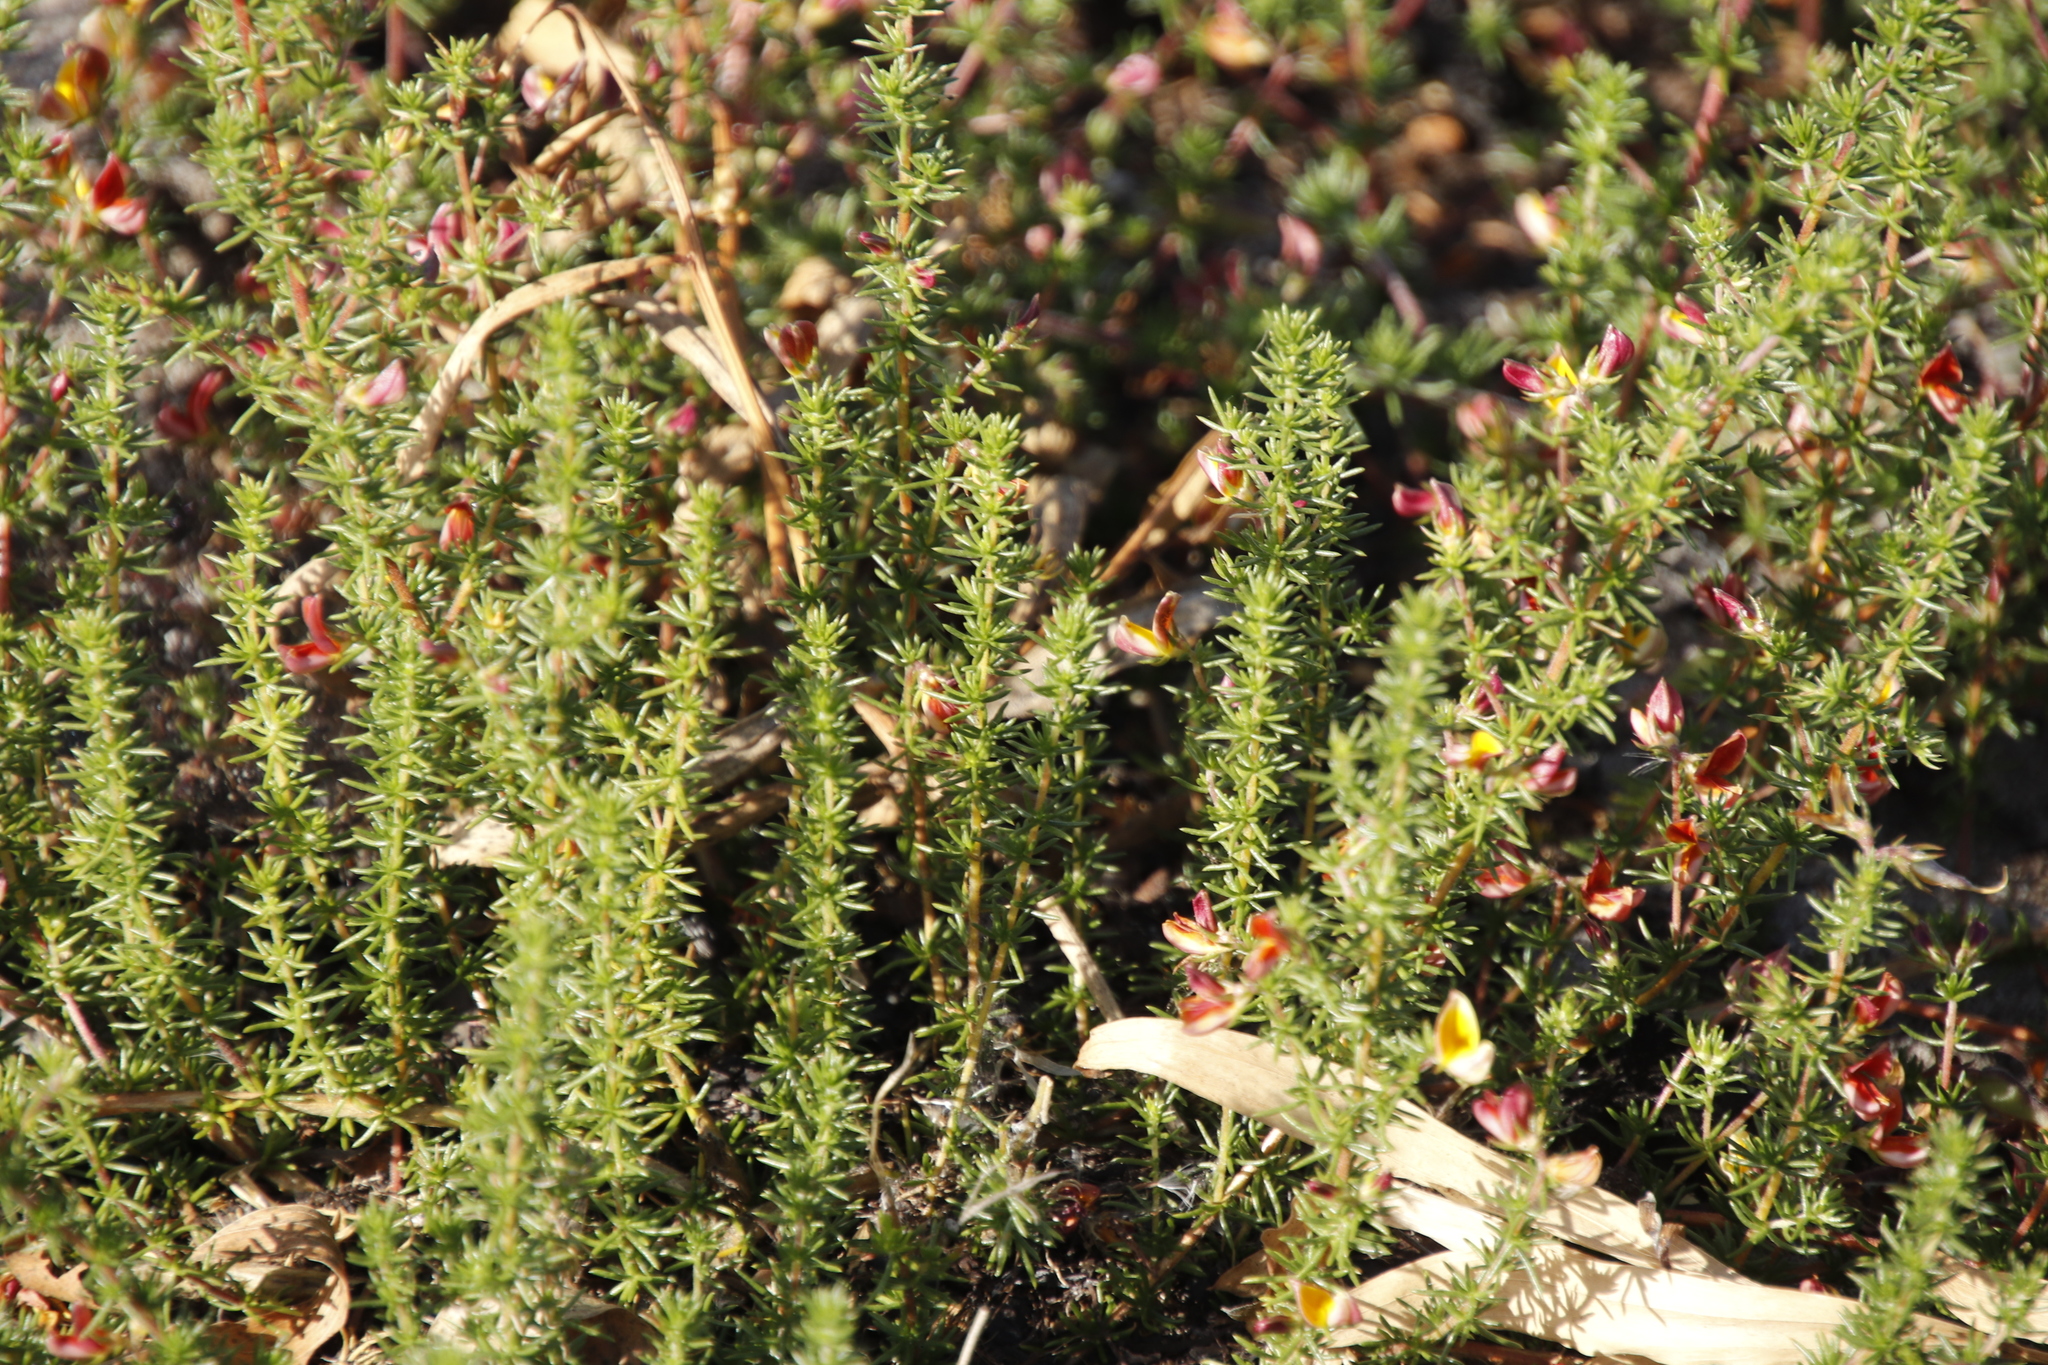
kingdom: Plantae
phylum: Tracheophyta
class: Magnoliopsida
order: Fabales
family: Fabaceae
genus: Aspalathus
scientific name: Aspalathus retroflexa
